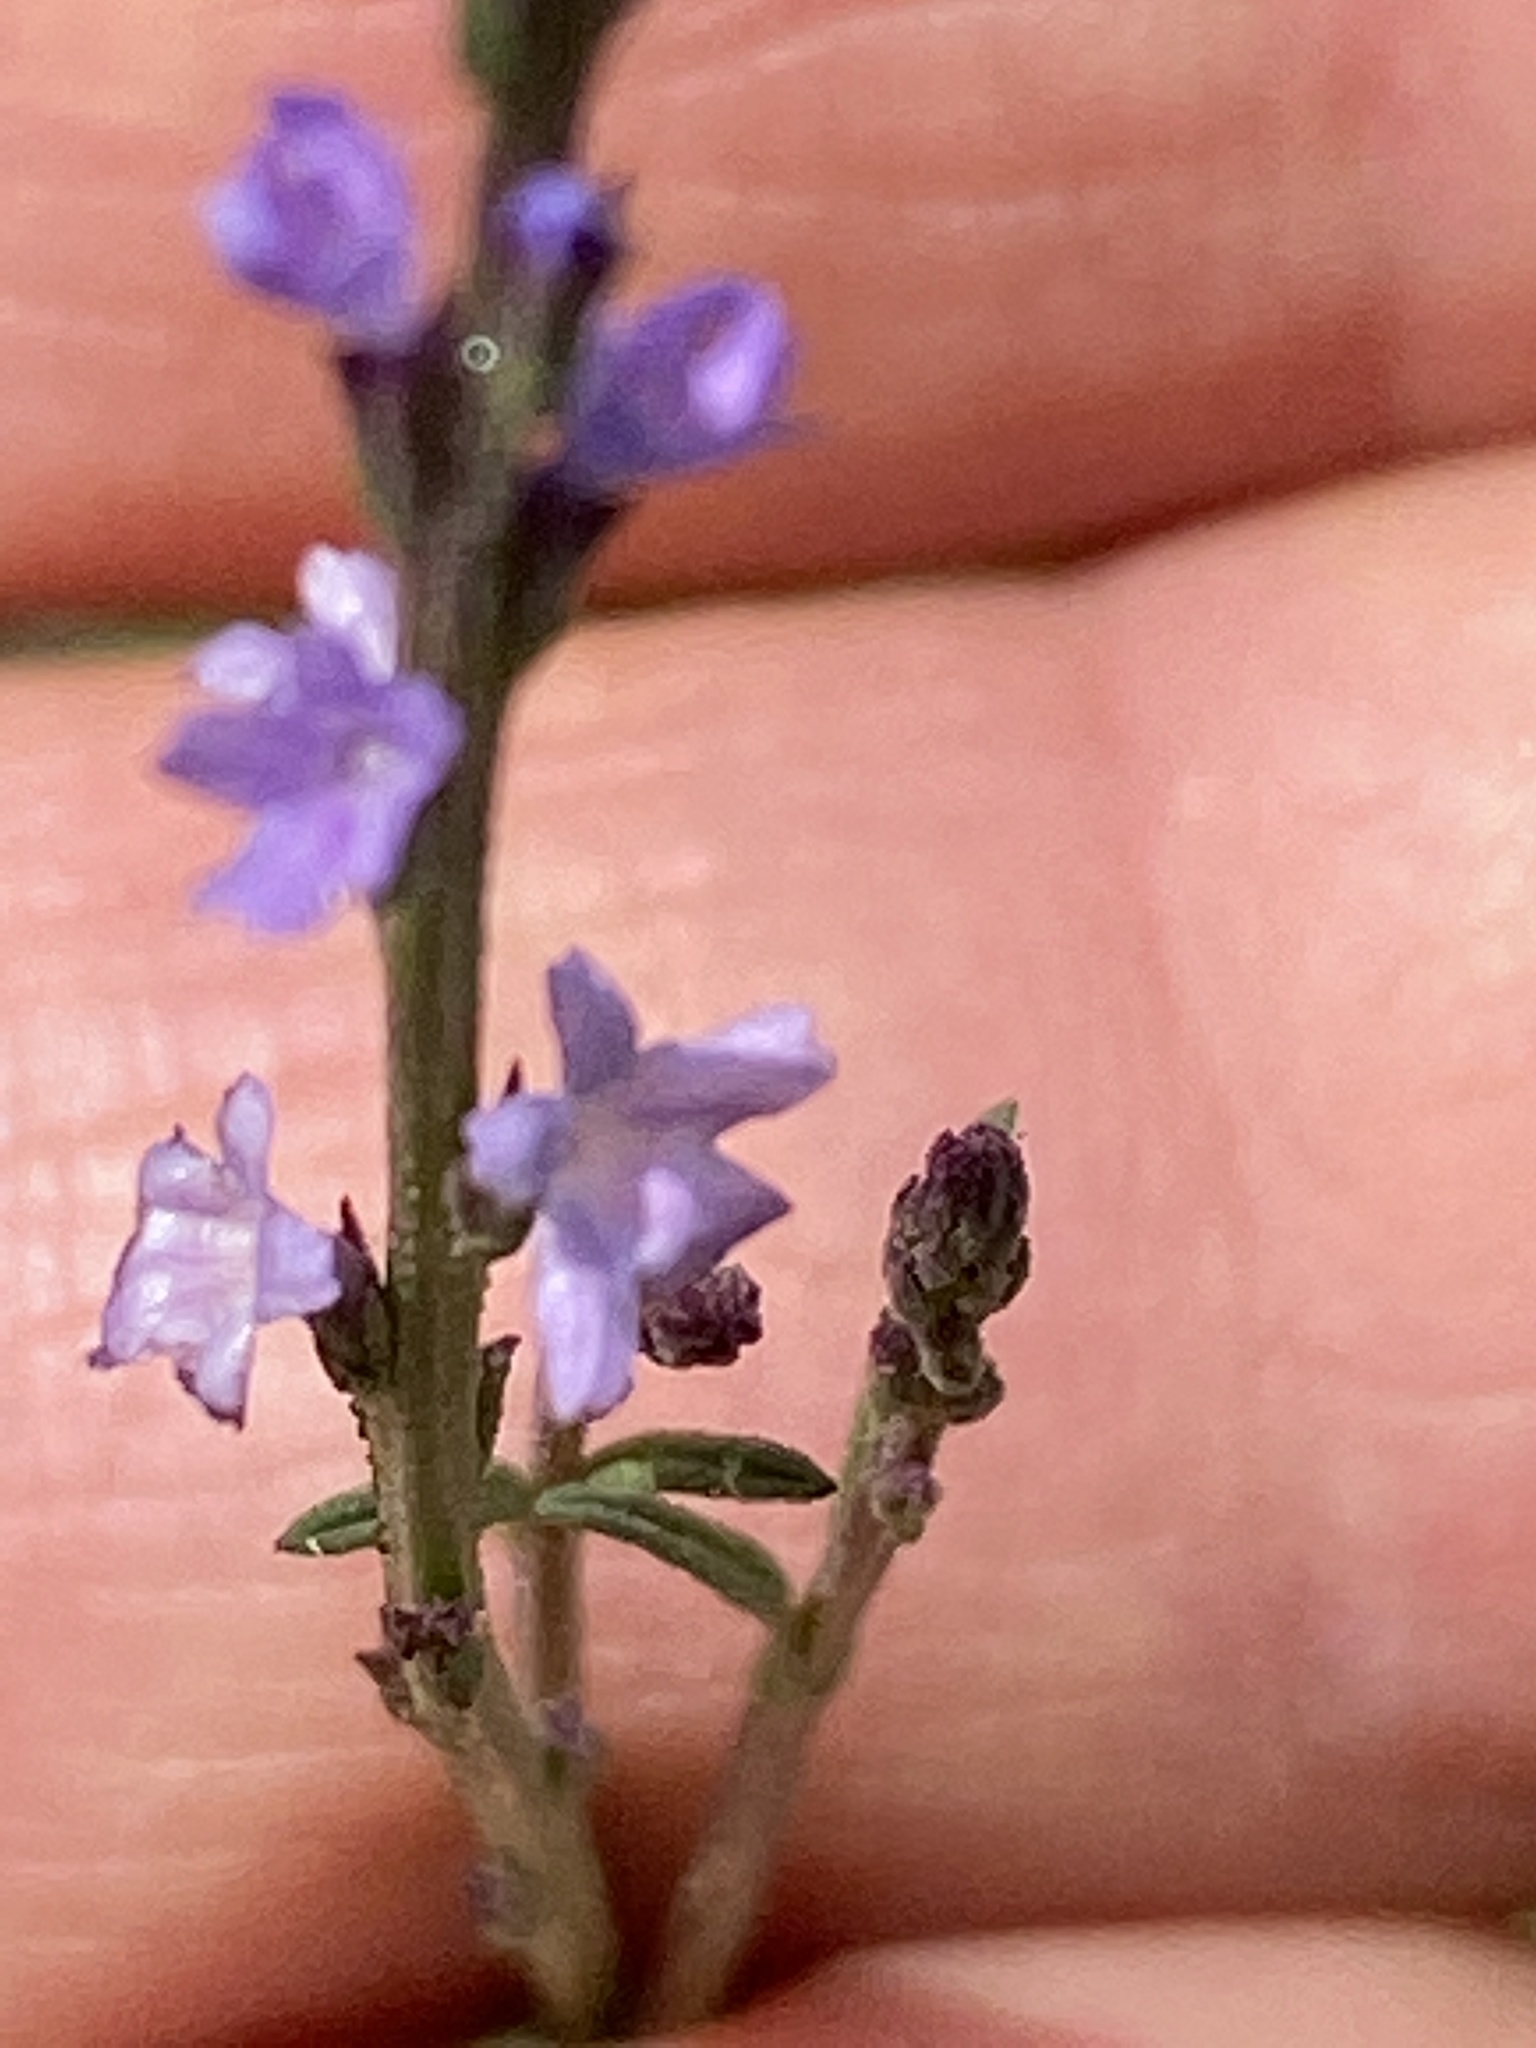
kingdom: Plantae
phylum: Tracheophyta
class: Magnoliopsida
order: Lamiales
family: Verbenaceae
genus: Verbena
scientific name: Verbena halei
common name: Texas vervain
